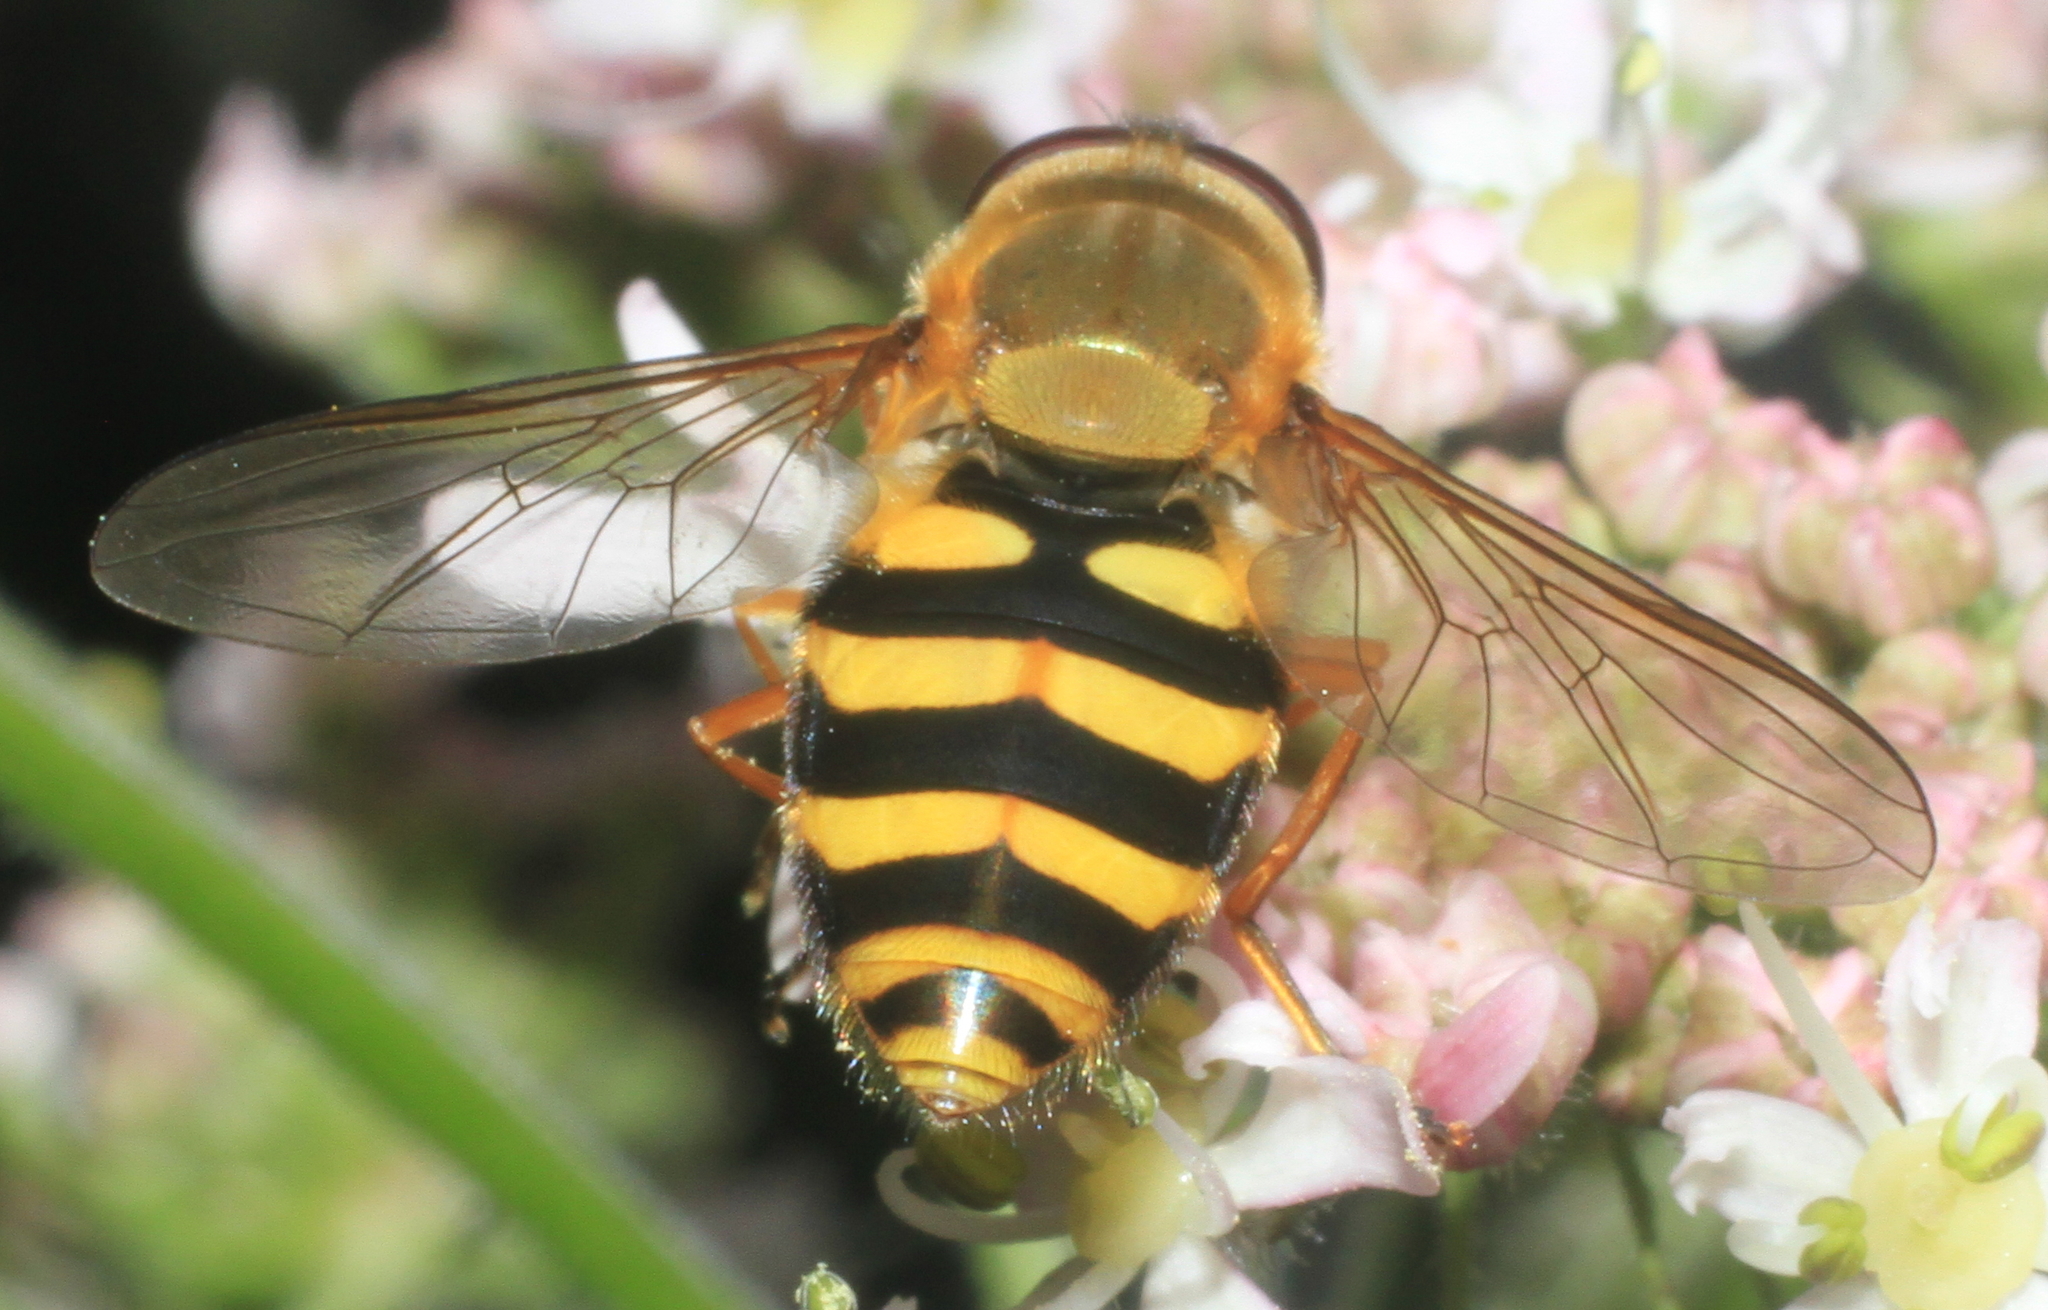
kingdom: Animalia
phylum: Arthropoda
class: Insecta
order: Diptera
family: Syrphidae
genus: Syrphus
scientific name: Syrphus
